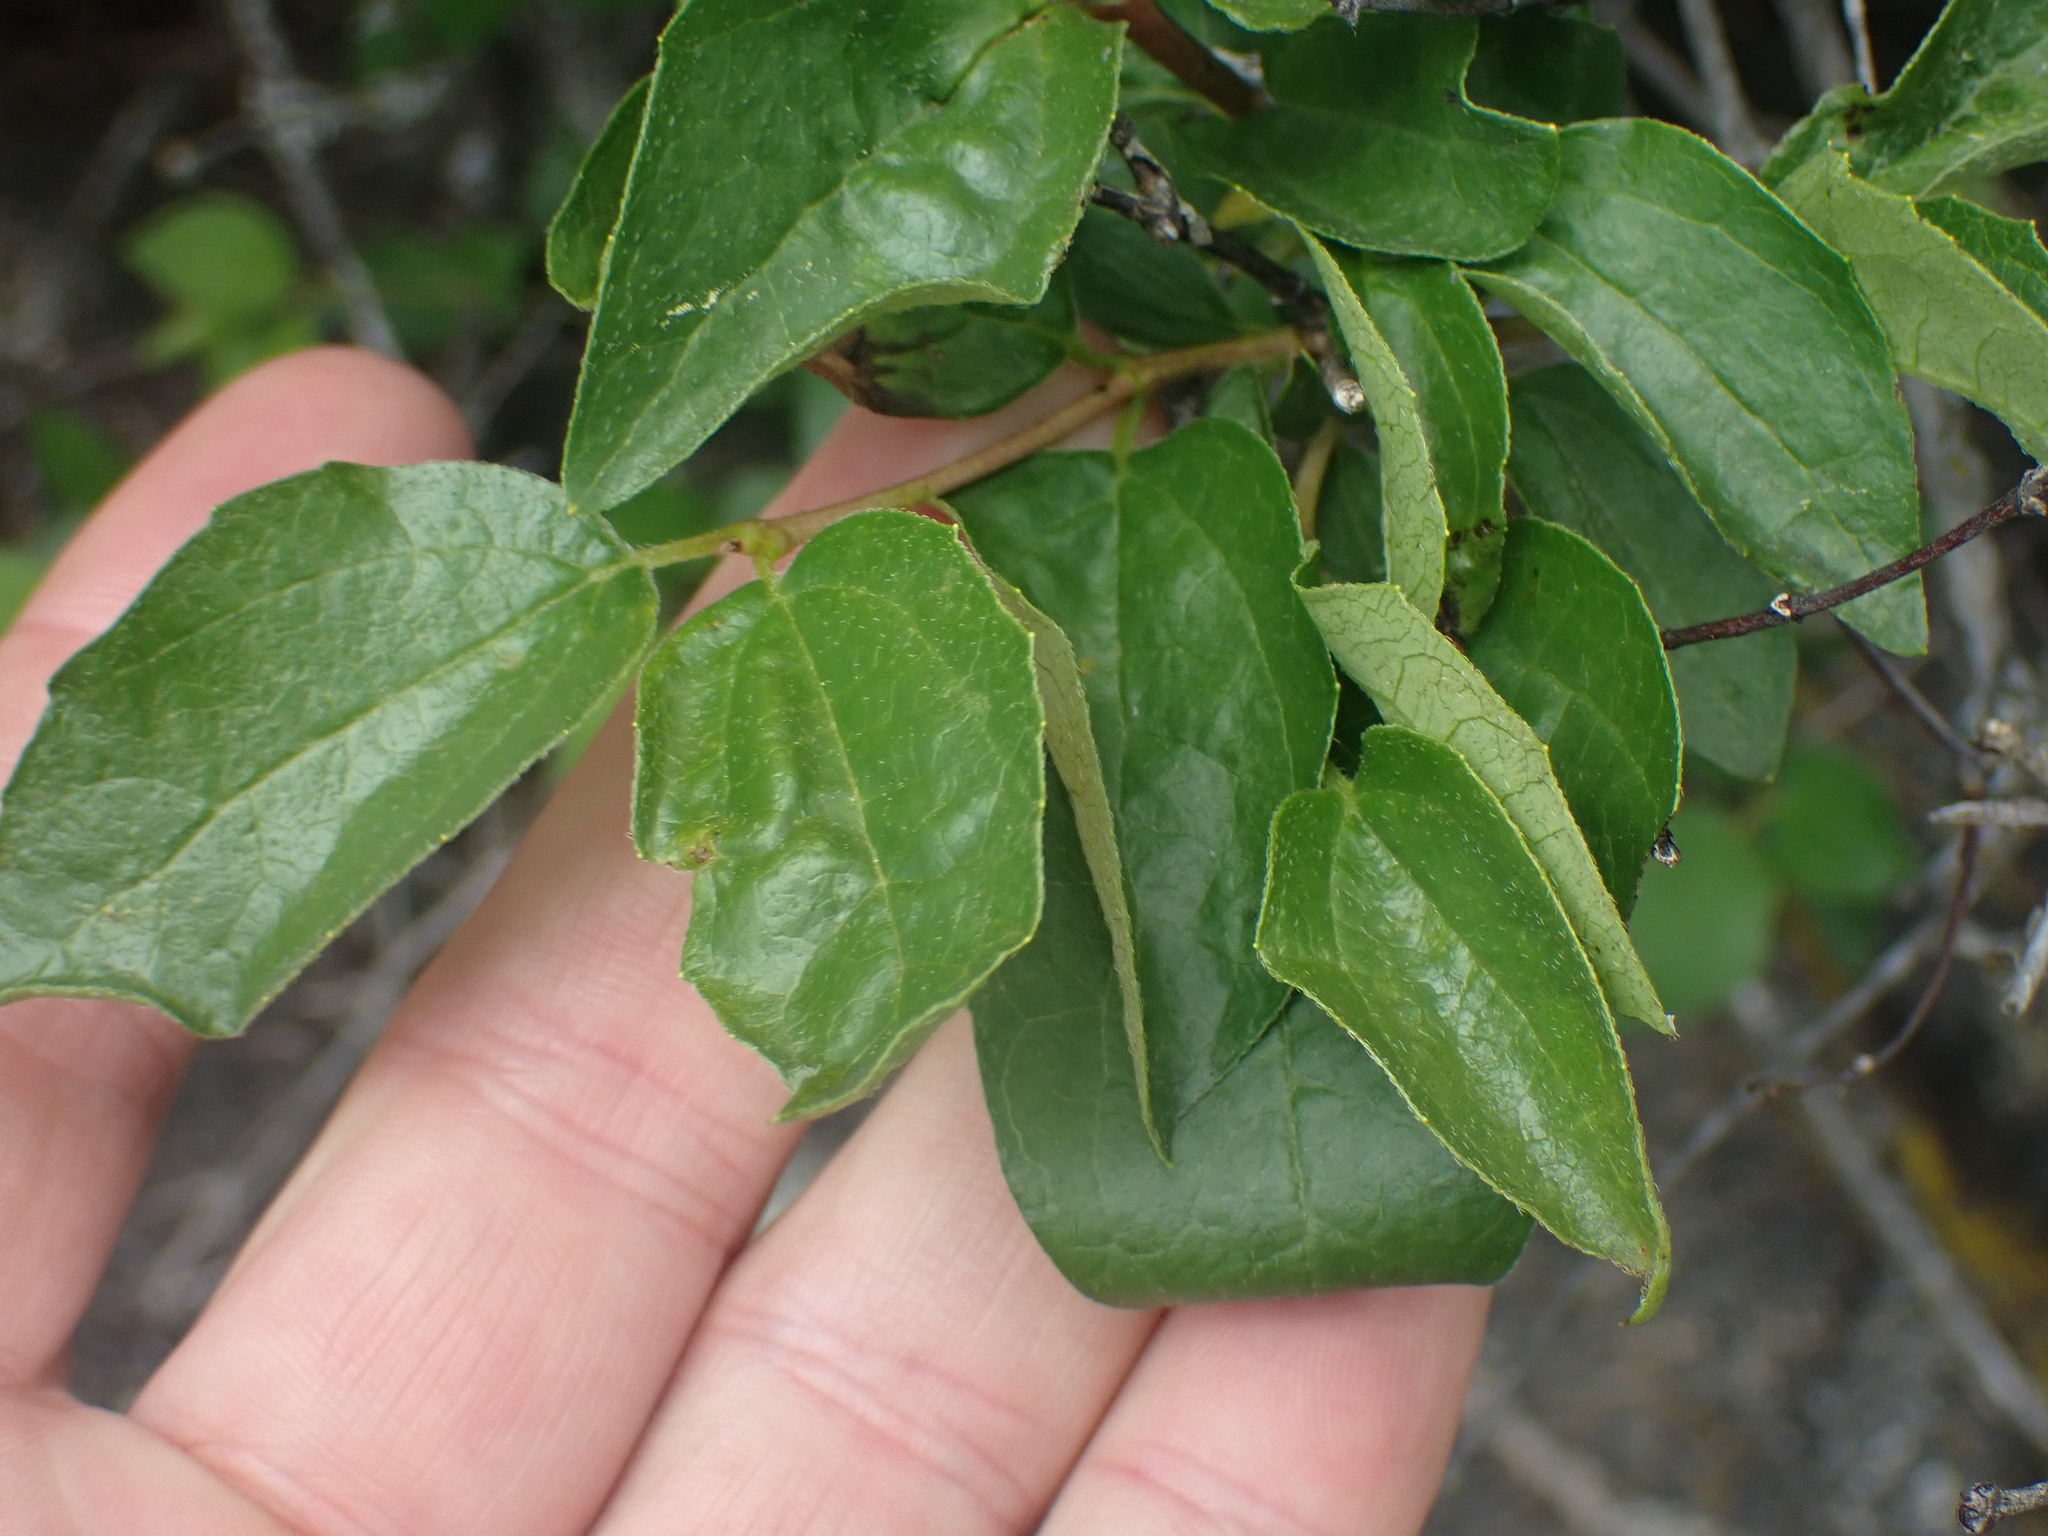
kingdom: Plantae
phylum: Tracheophyta
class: Magnoliopsida
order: Cornales
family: Hydrangeaceae
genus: Philadelphus
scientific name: Philadelphus lewisii
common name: Lewis's mock orange
